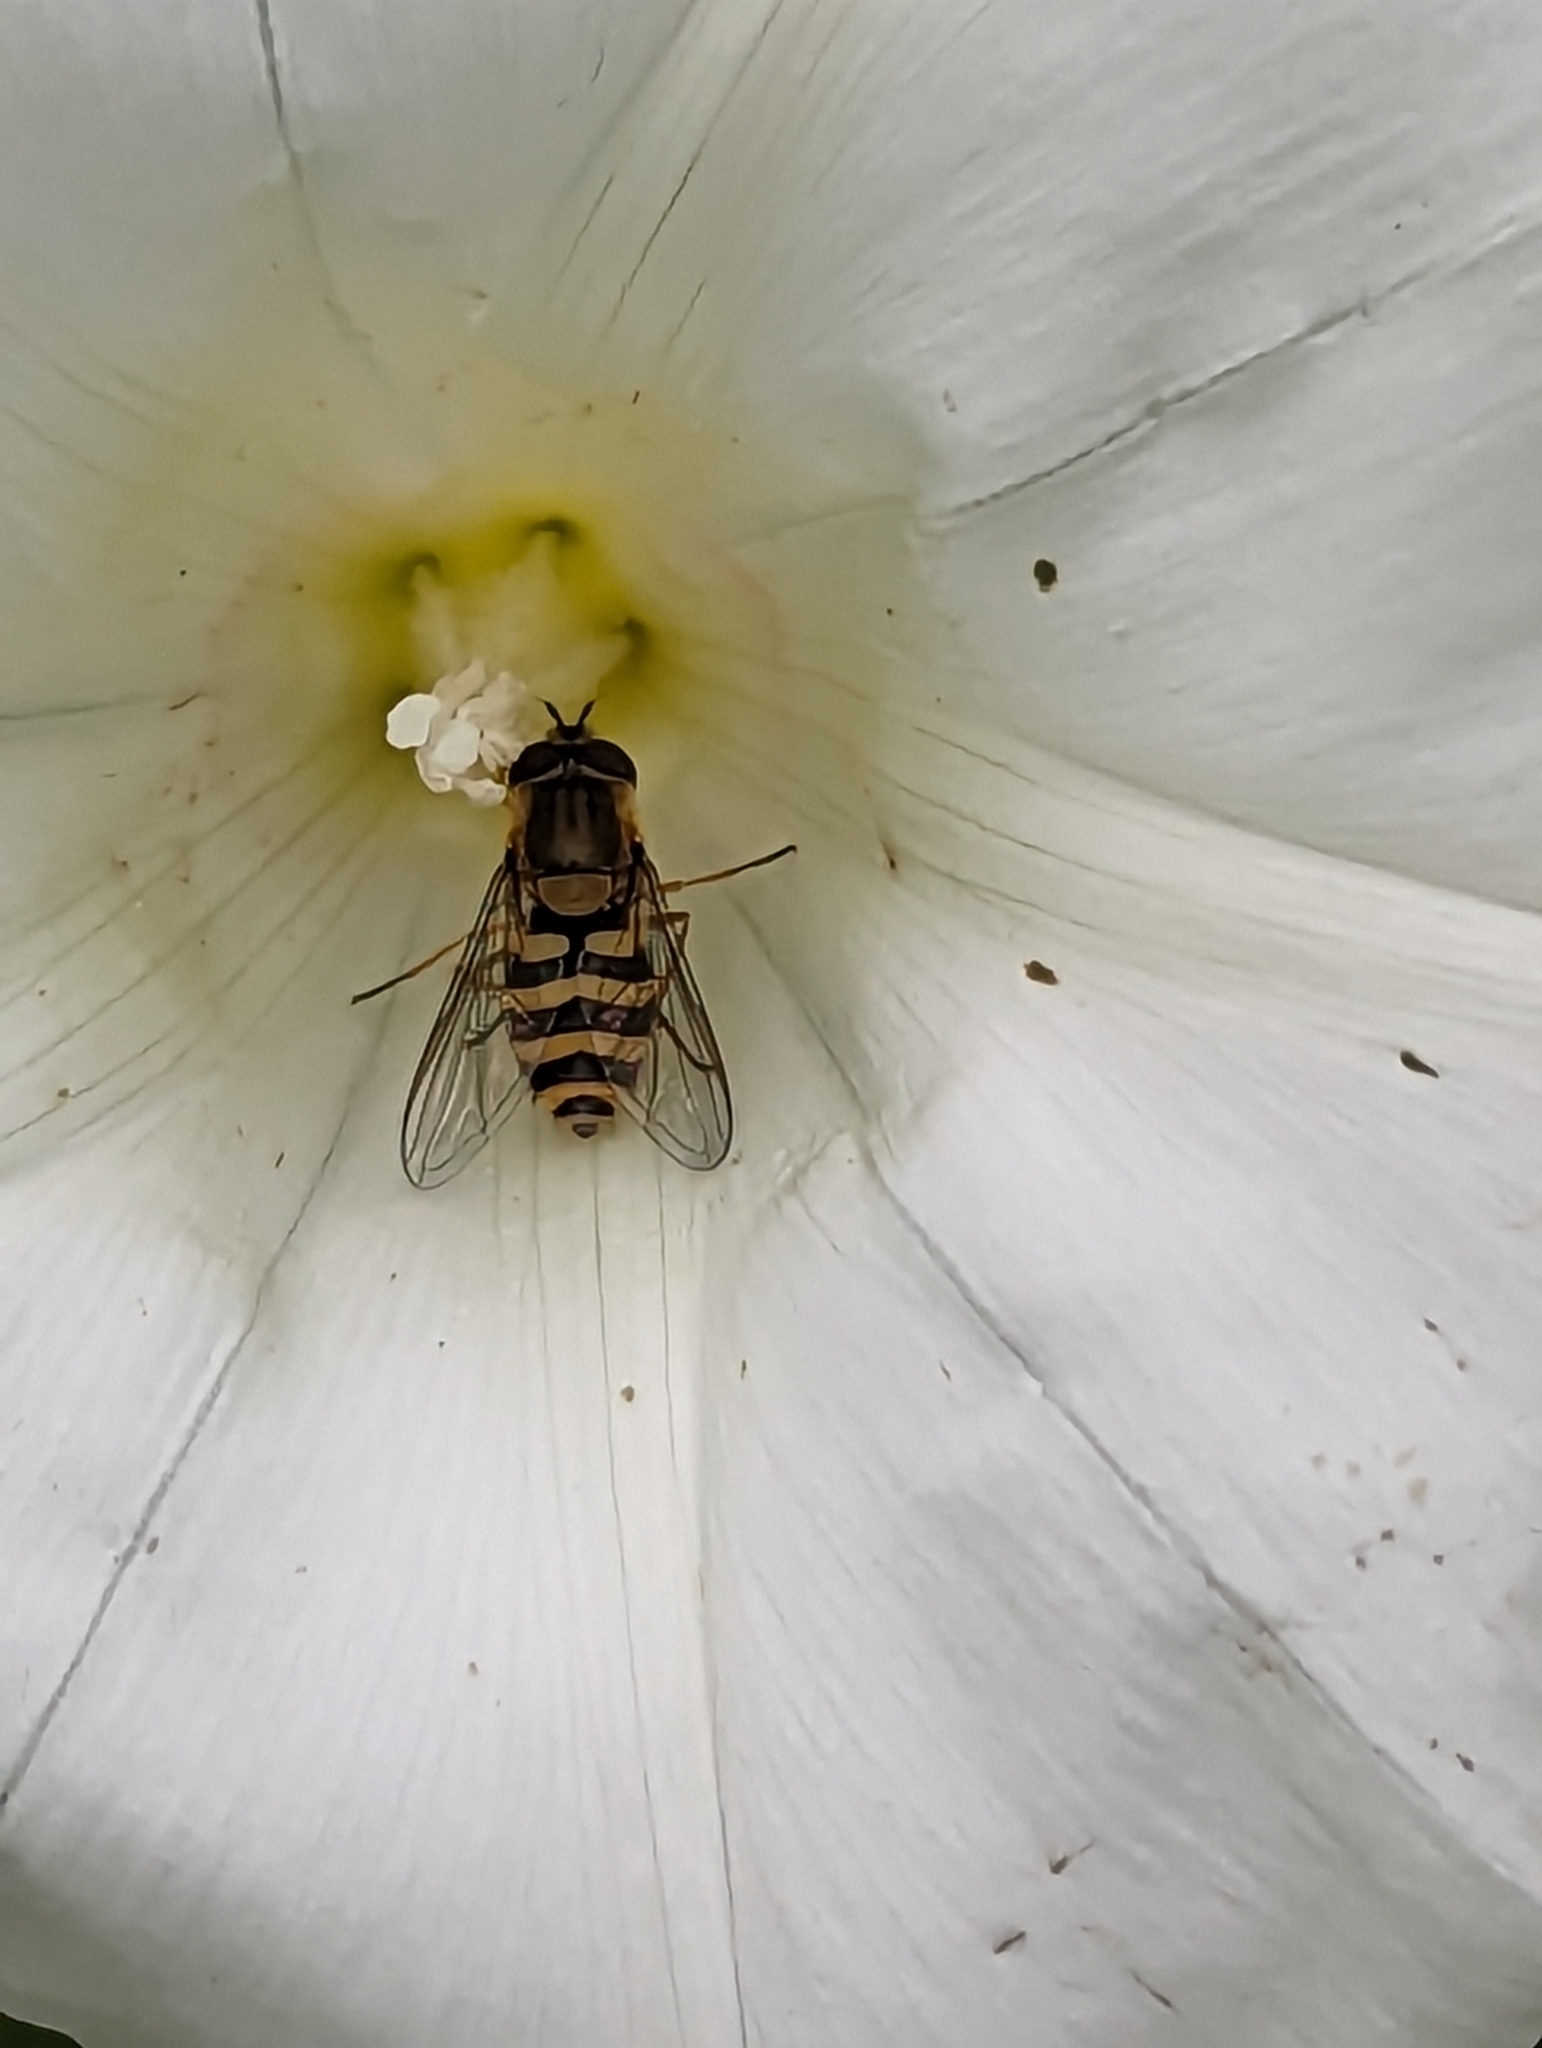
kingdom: Animalia
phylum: Arthropoda
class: Insecta
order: Diptera
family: Syrphidae
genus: Syrphus
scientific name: Syrphus
